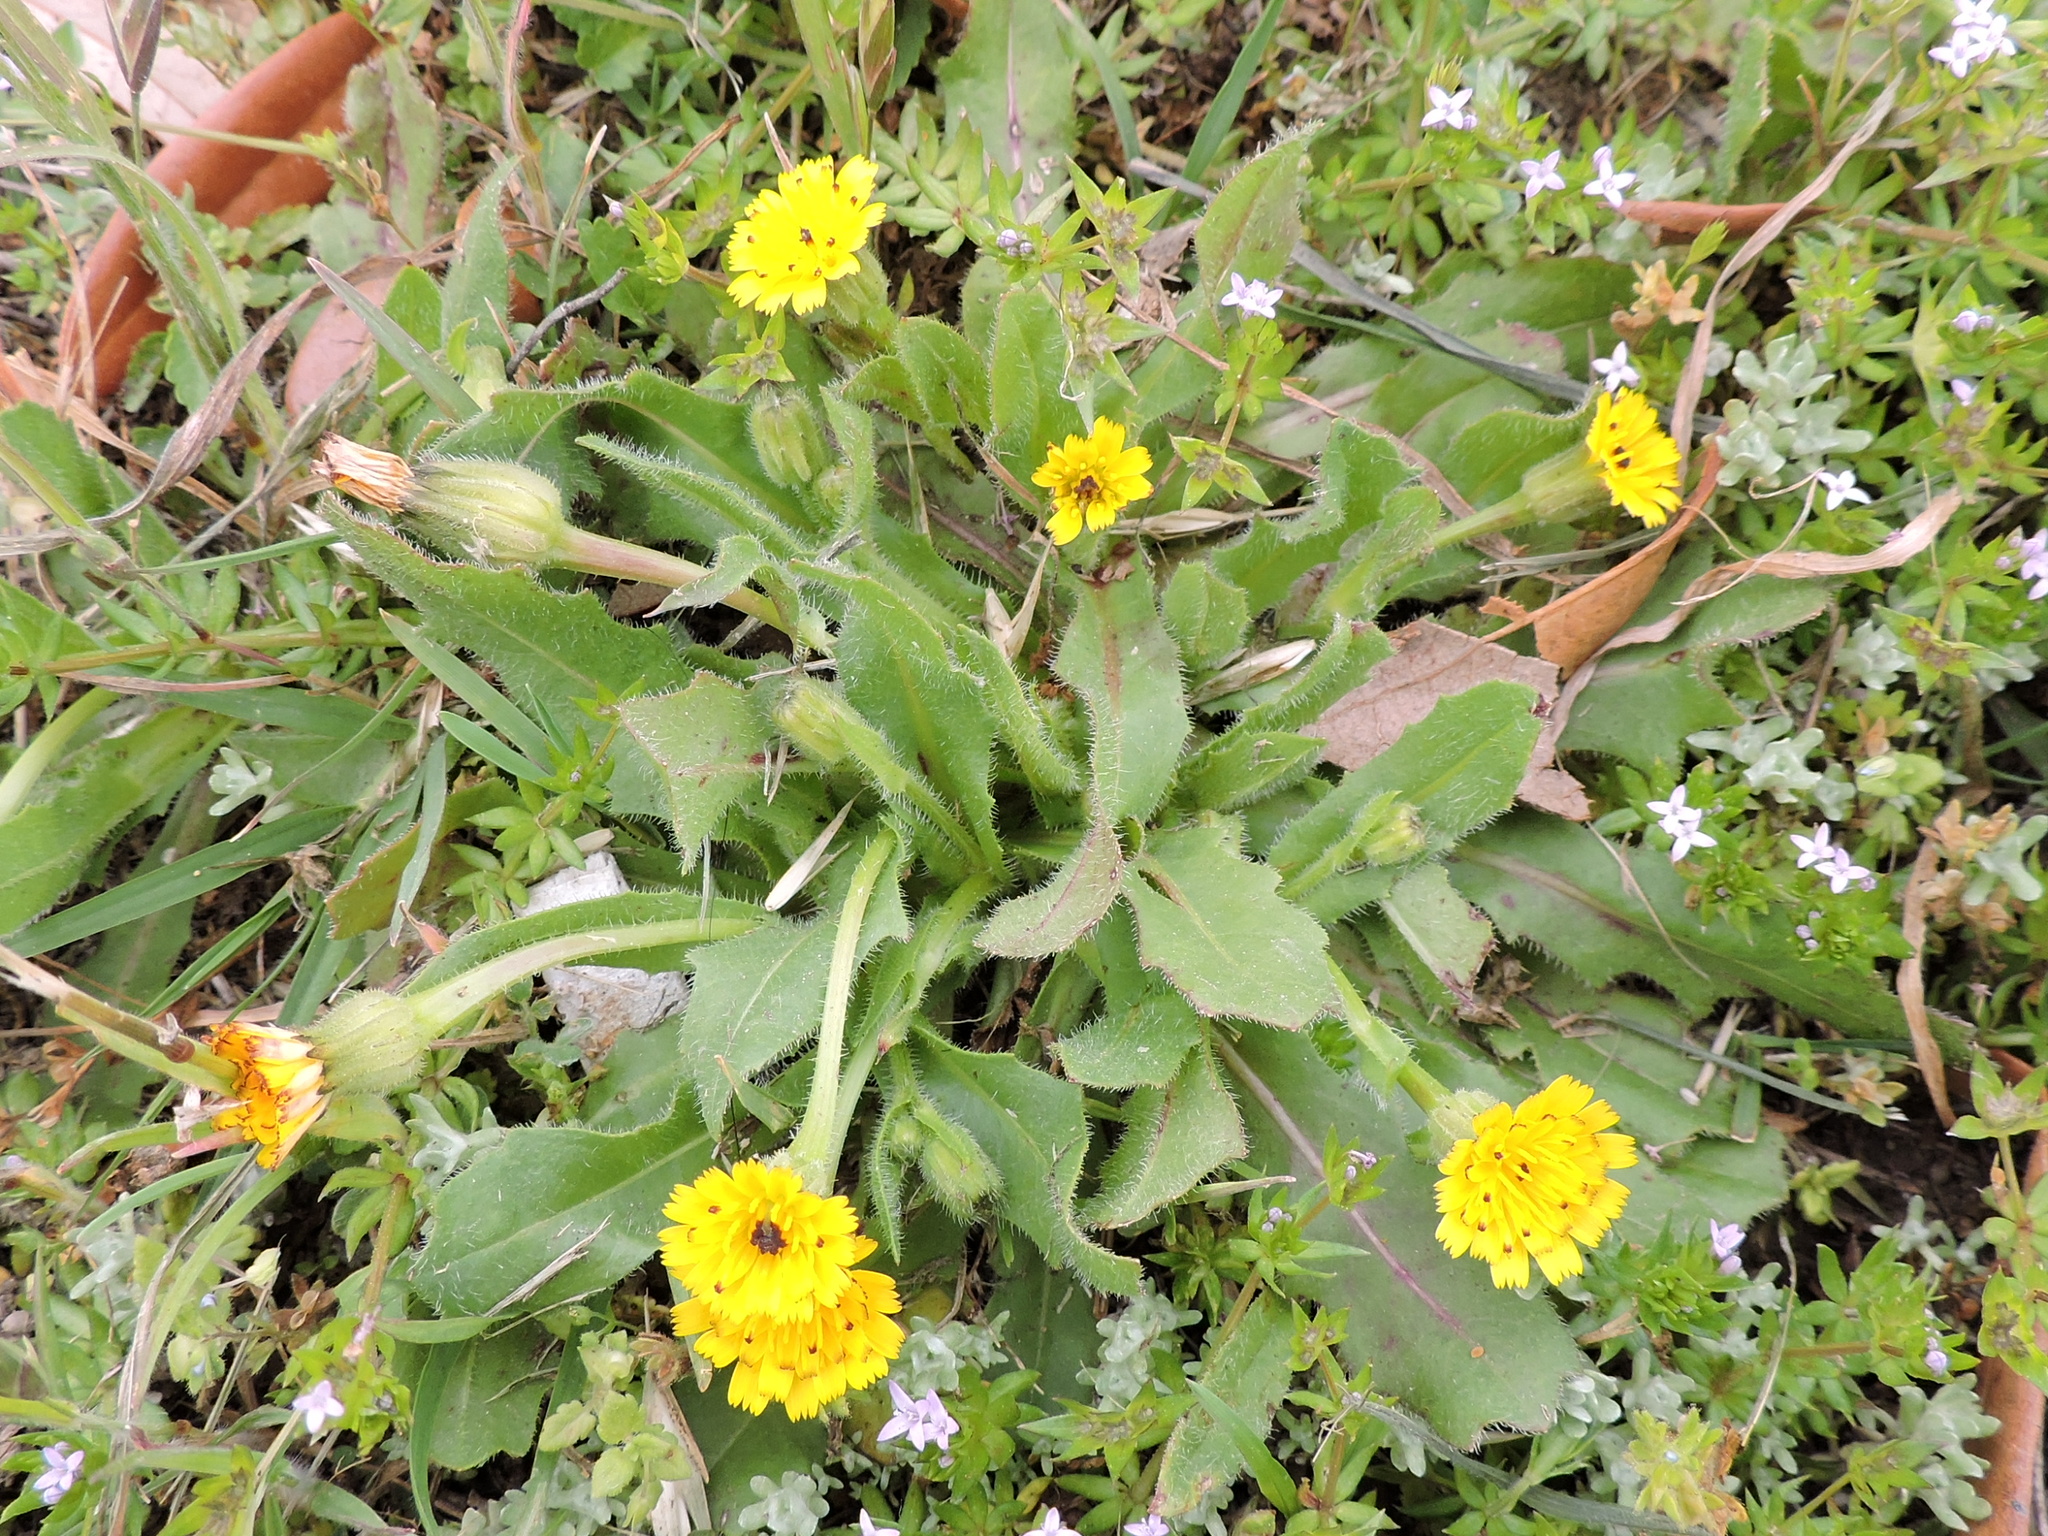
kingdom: Plantae
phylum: Tracheophyta
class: Magnoliopsida
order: Asterales
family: Asteraceae
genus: Hedypnois
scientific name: Hedypnois rhagadioloides
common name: Cretan weed
